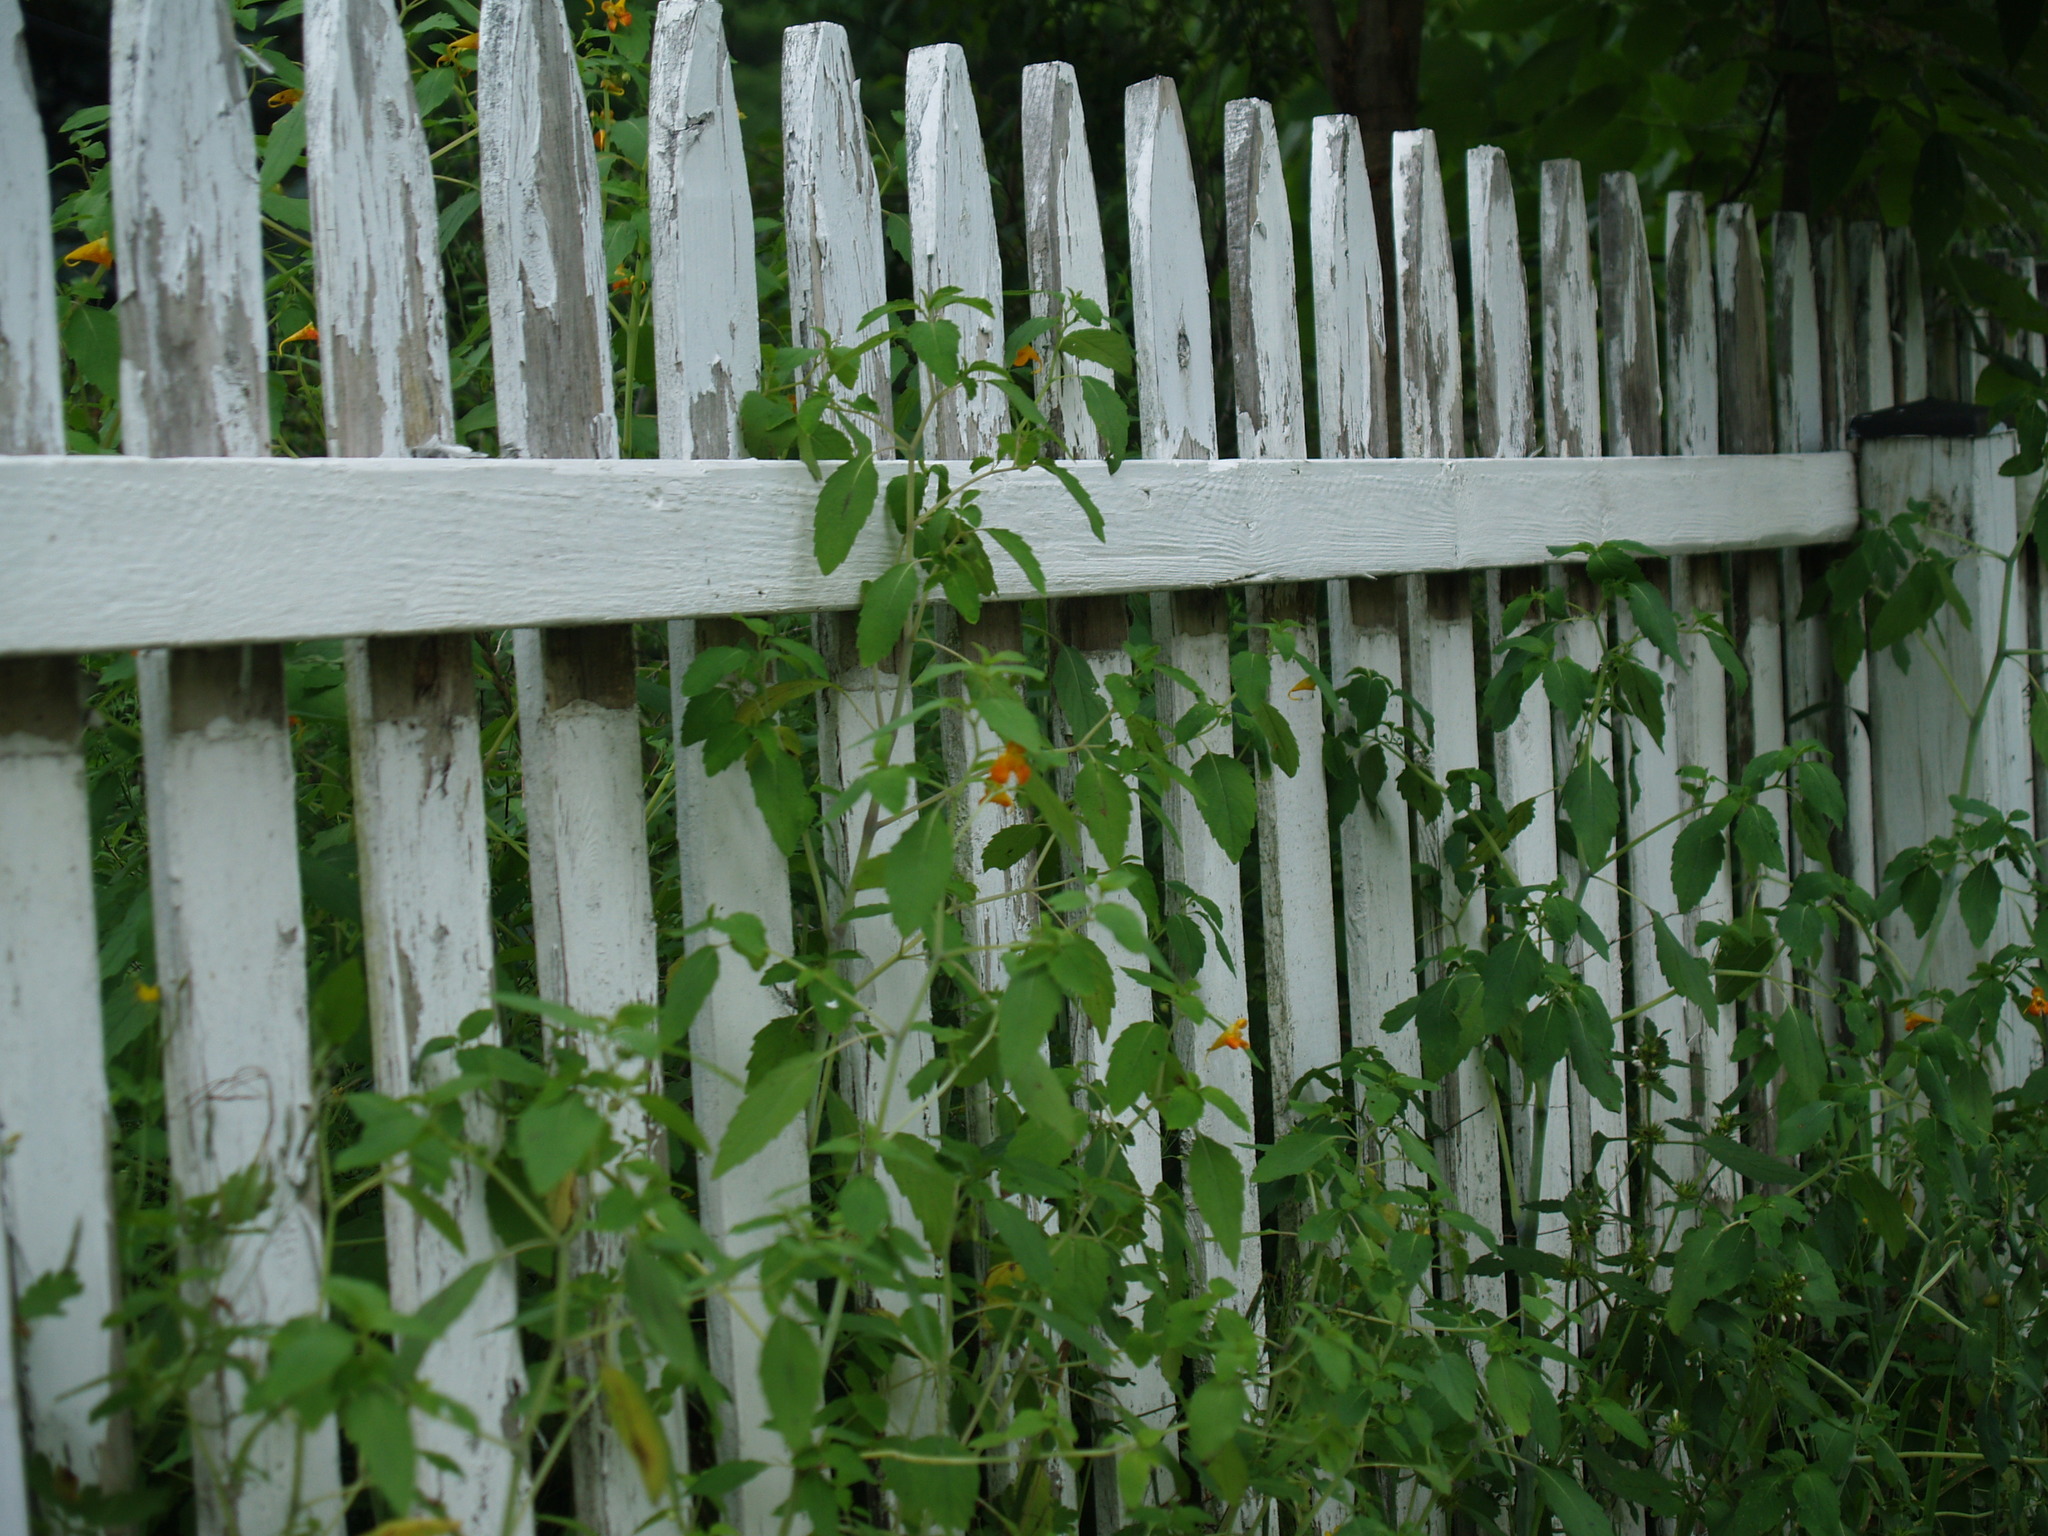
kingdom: Plantae
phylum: Tracheophyta
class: Magnoliopsida
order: Ericales
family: Balsaminaceae
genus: Impatiens
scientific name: Impatiens capensis
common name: Orange balsam
